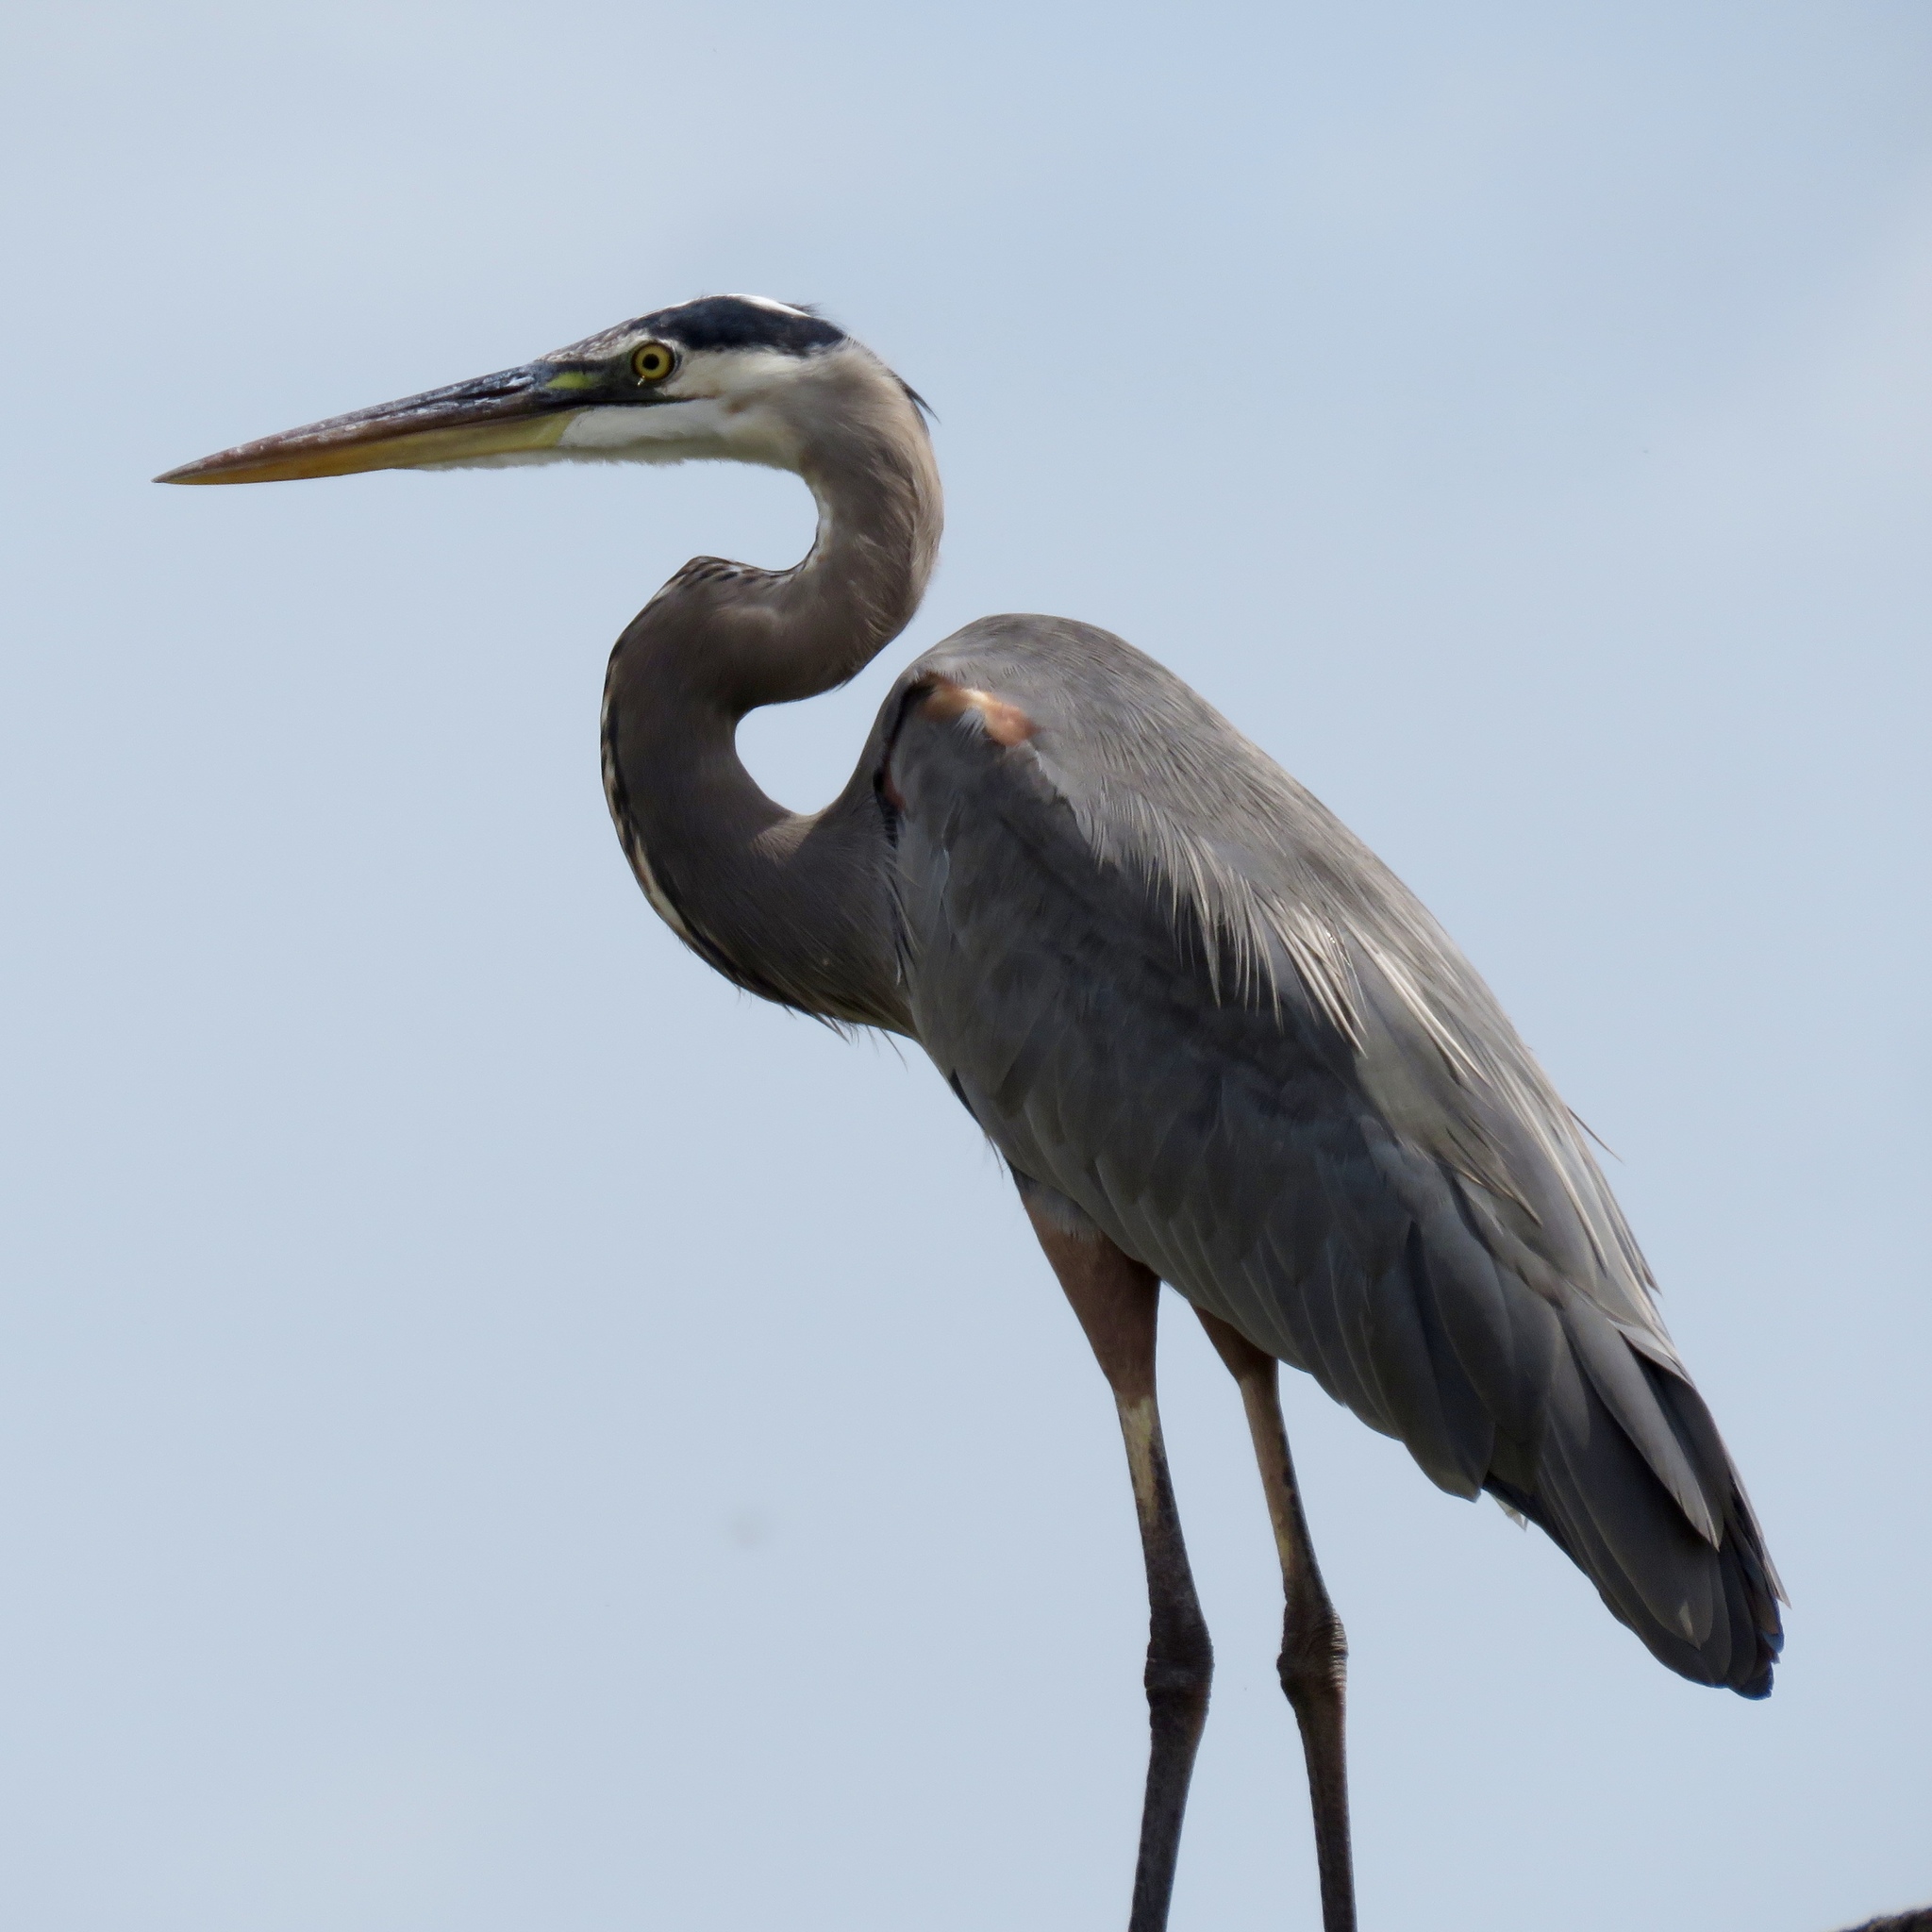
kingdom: Animalia
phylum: Chordata
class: Aves
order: Pelecaniformes
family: Ardeidae
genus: Ardea
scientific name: Ardea herodias
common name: Great blue heron
